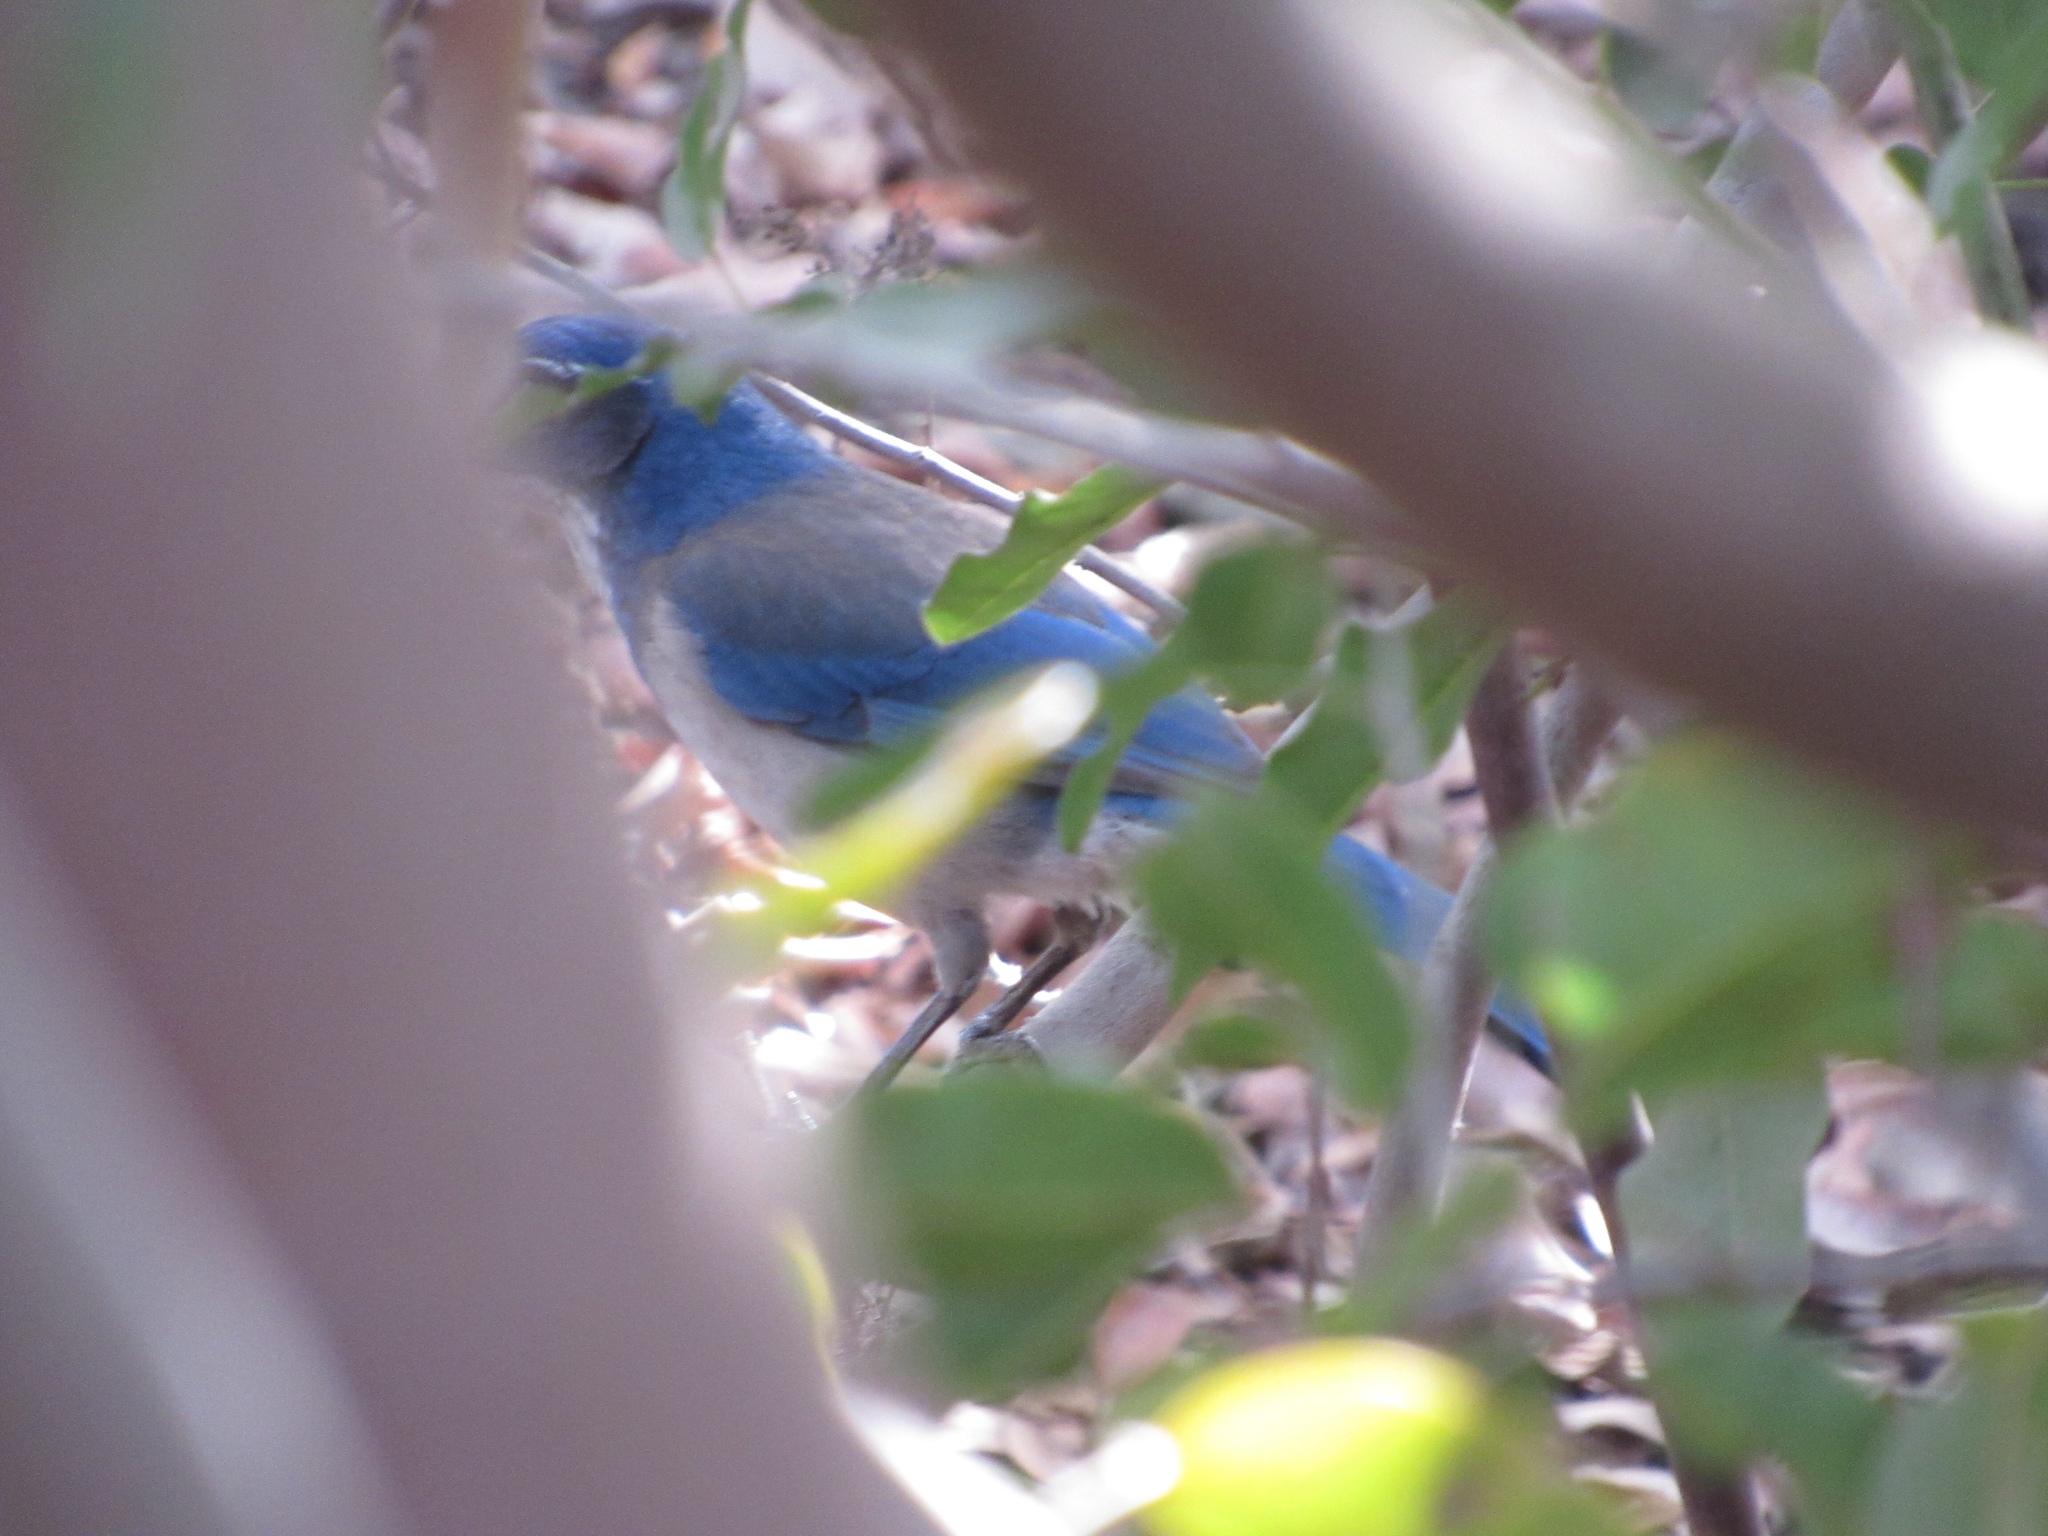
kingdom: Animalia
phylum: Chordata
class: Aves
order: Passeriformes
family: Corvidae
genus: Aphelocoma
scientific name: Aphelocoma californica
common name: California scrub-jay
